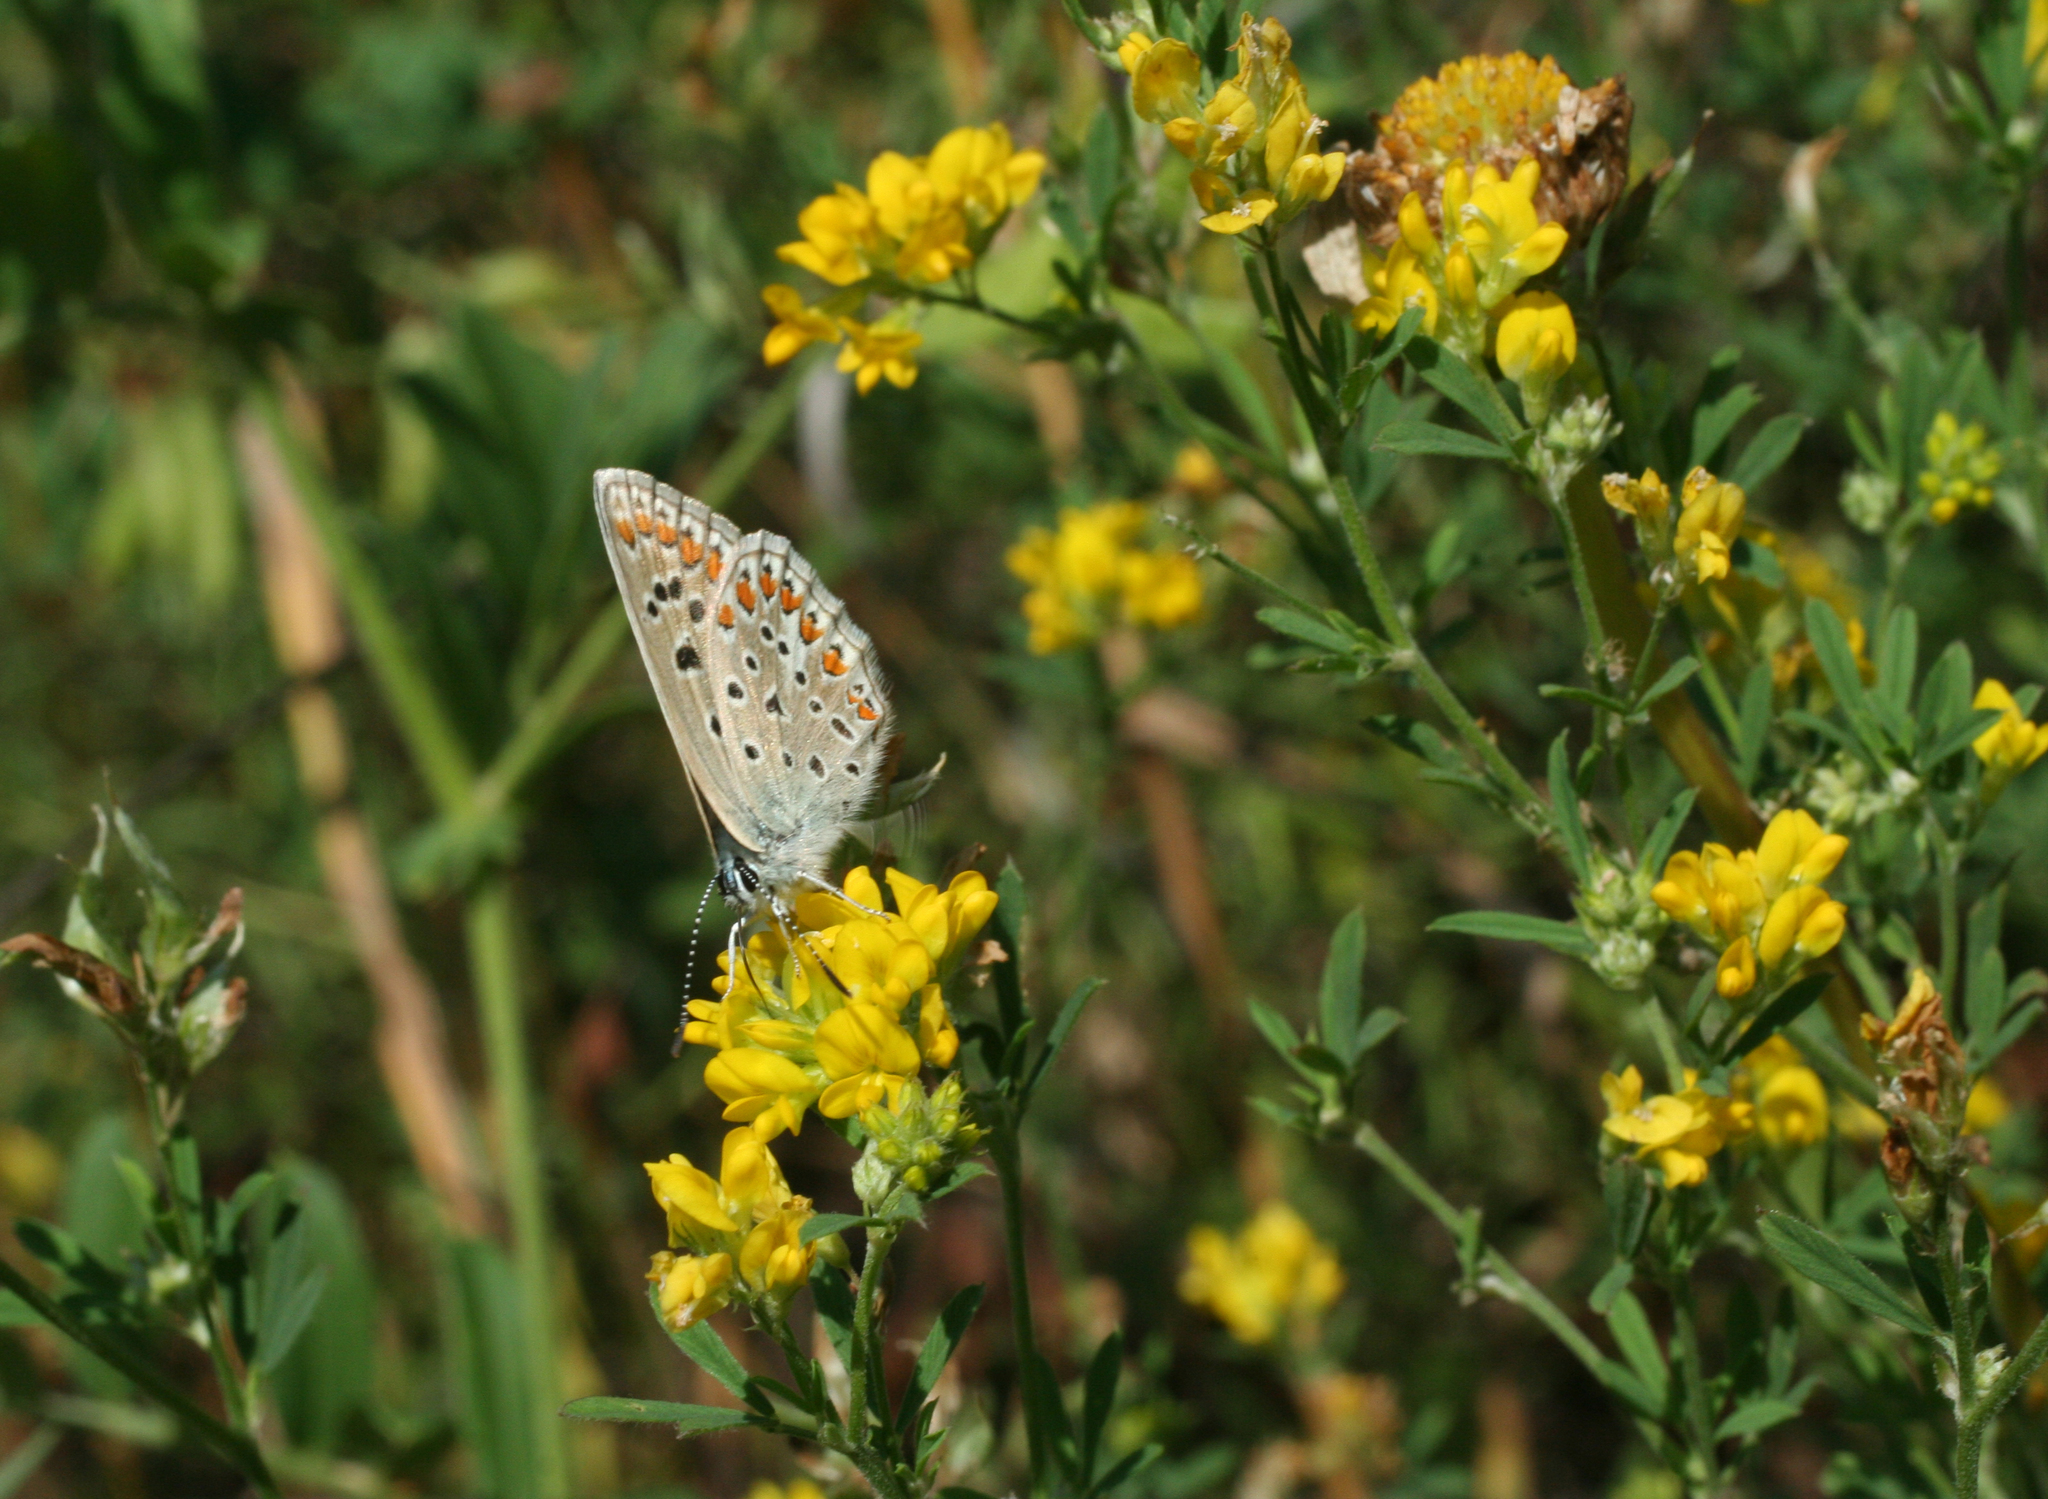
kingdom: Plantae
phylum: Tracheophyta
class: Magnoliopsida
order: Fabales
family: Fabaceae
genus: Medicago
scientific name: Medicago falcata
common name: Sickle medick
